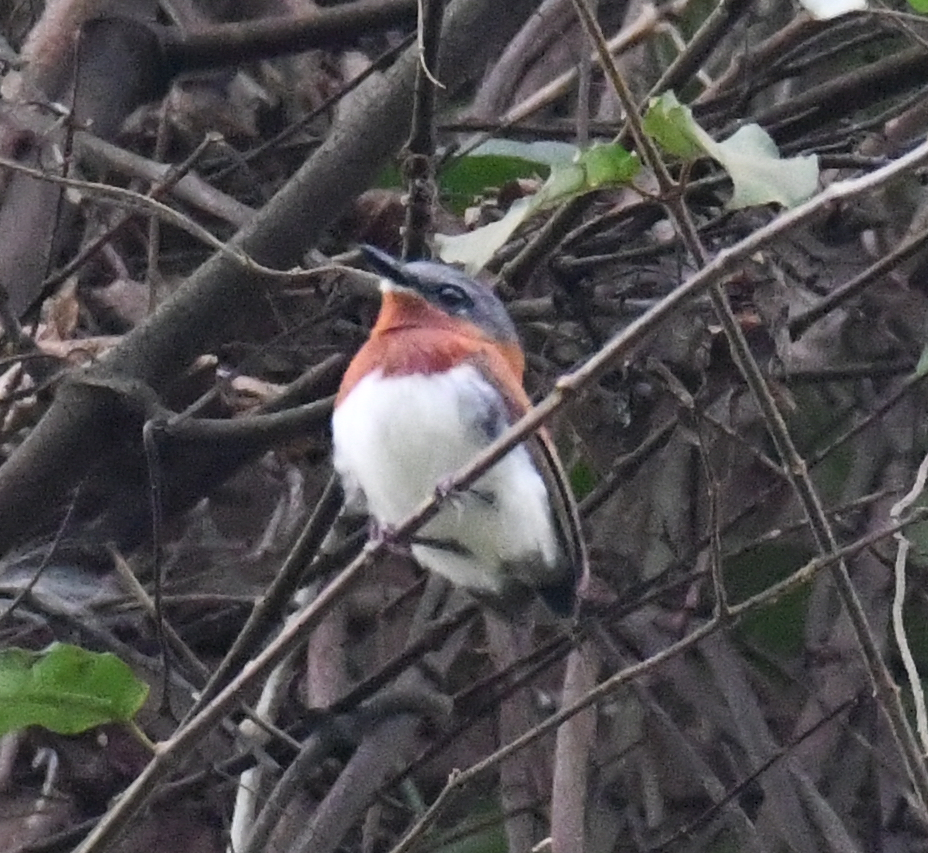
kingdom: Animalia
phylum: Chordata
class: Aves
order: Passeriformes
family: Platysteiridae
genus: Platysteira
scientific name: Platysteira hormophora
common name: West african wattle-eye
